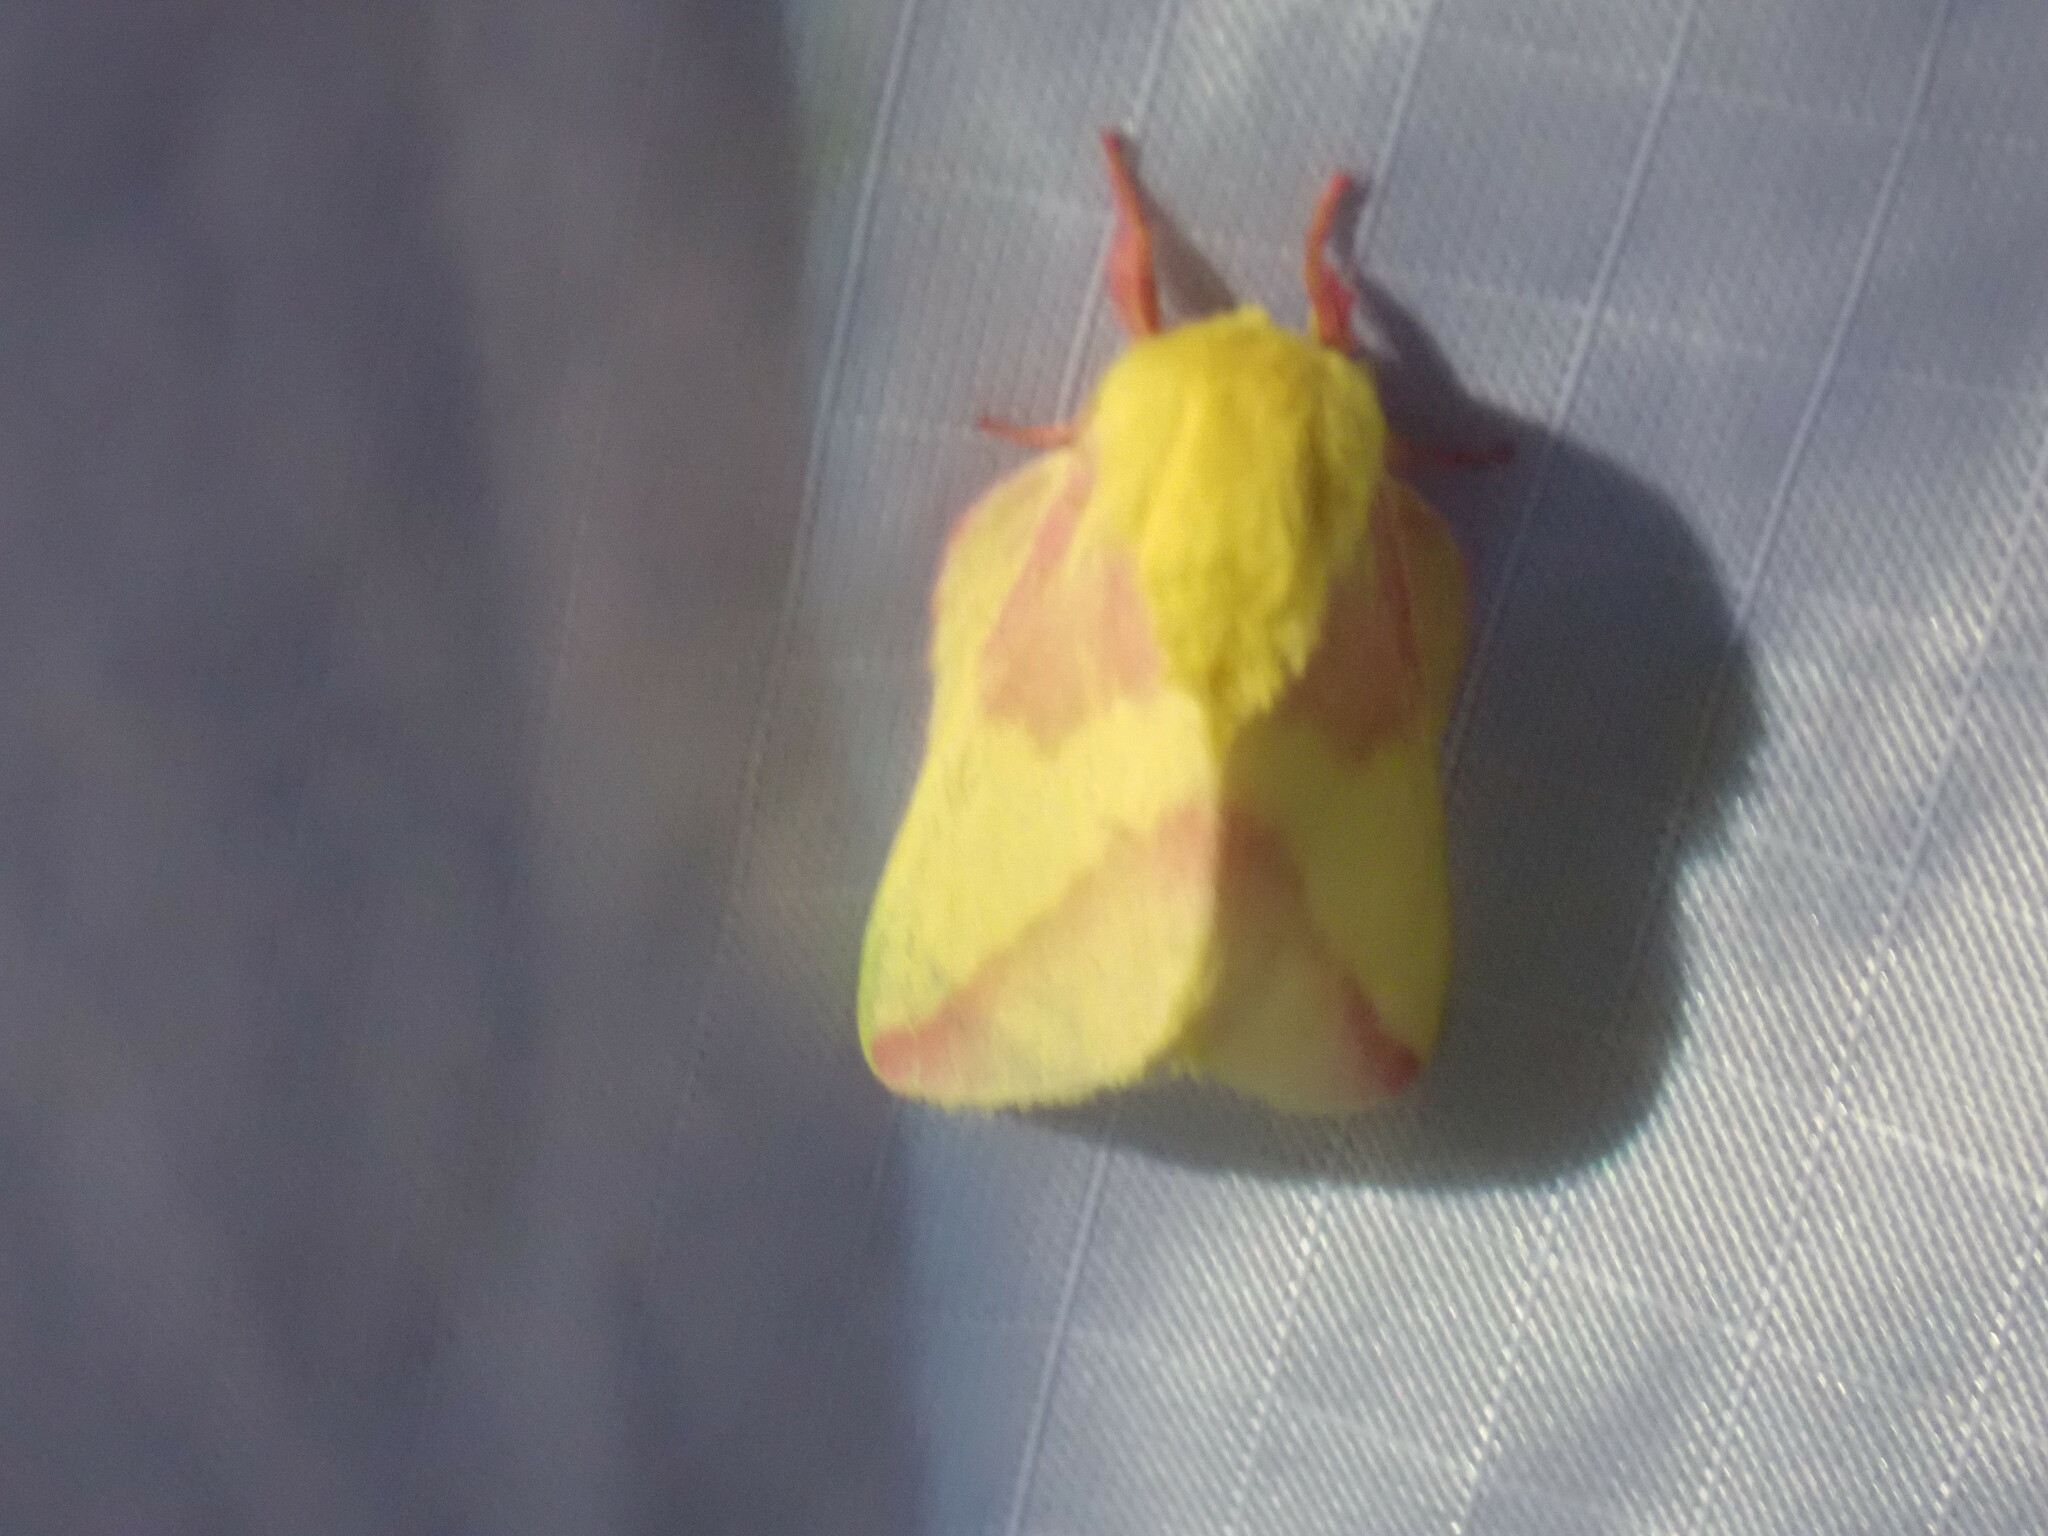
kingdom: Animalia
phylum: Arthropoda
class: Insecta
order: Lepidoptera
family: Saturniidae
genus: Dryocampa
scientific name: Dryocampa rubicunda
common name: Rosy maple moth
